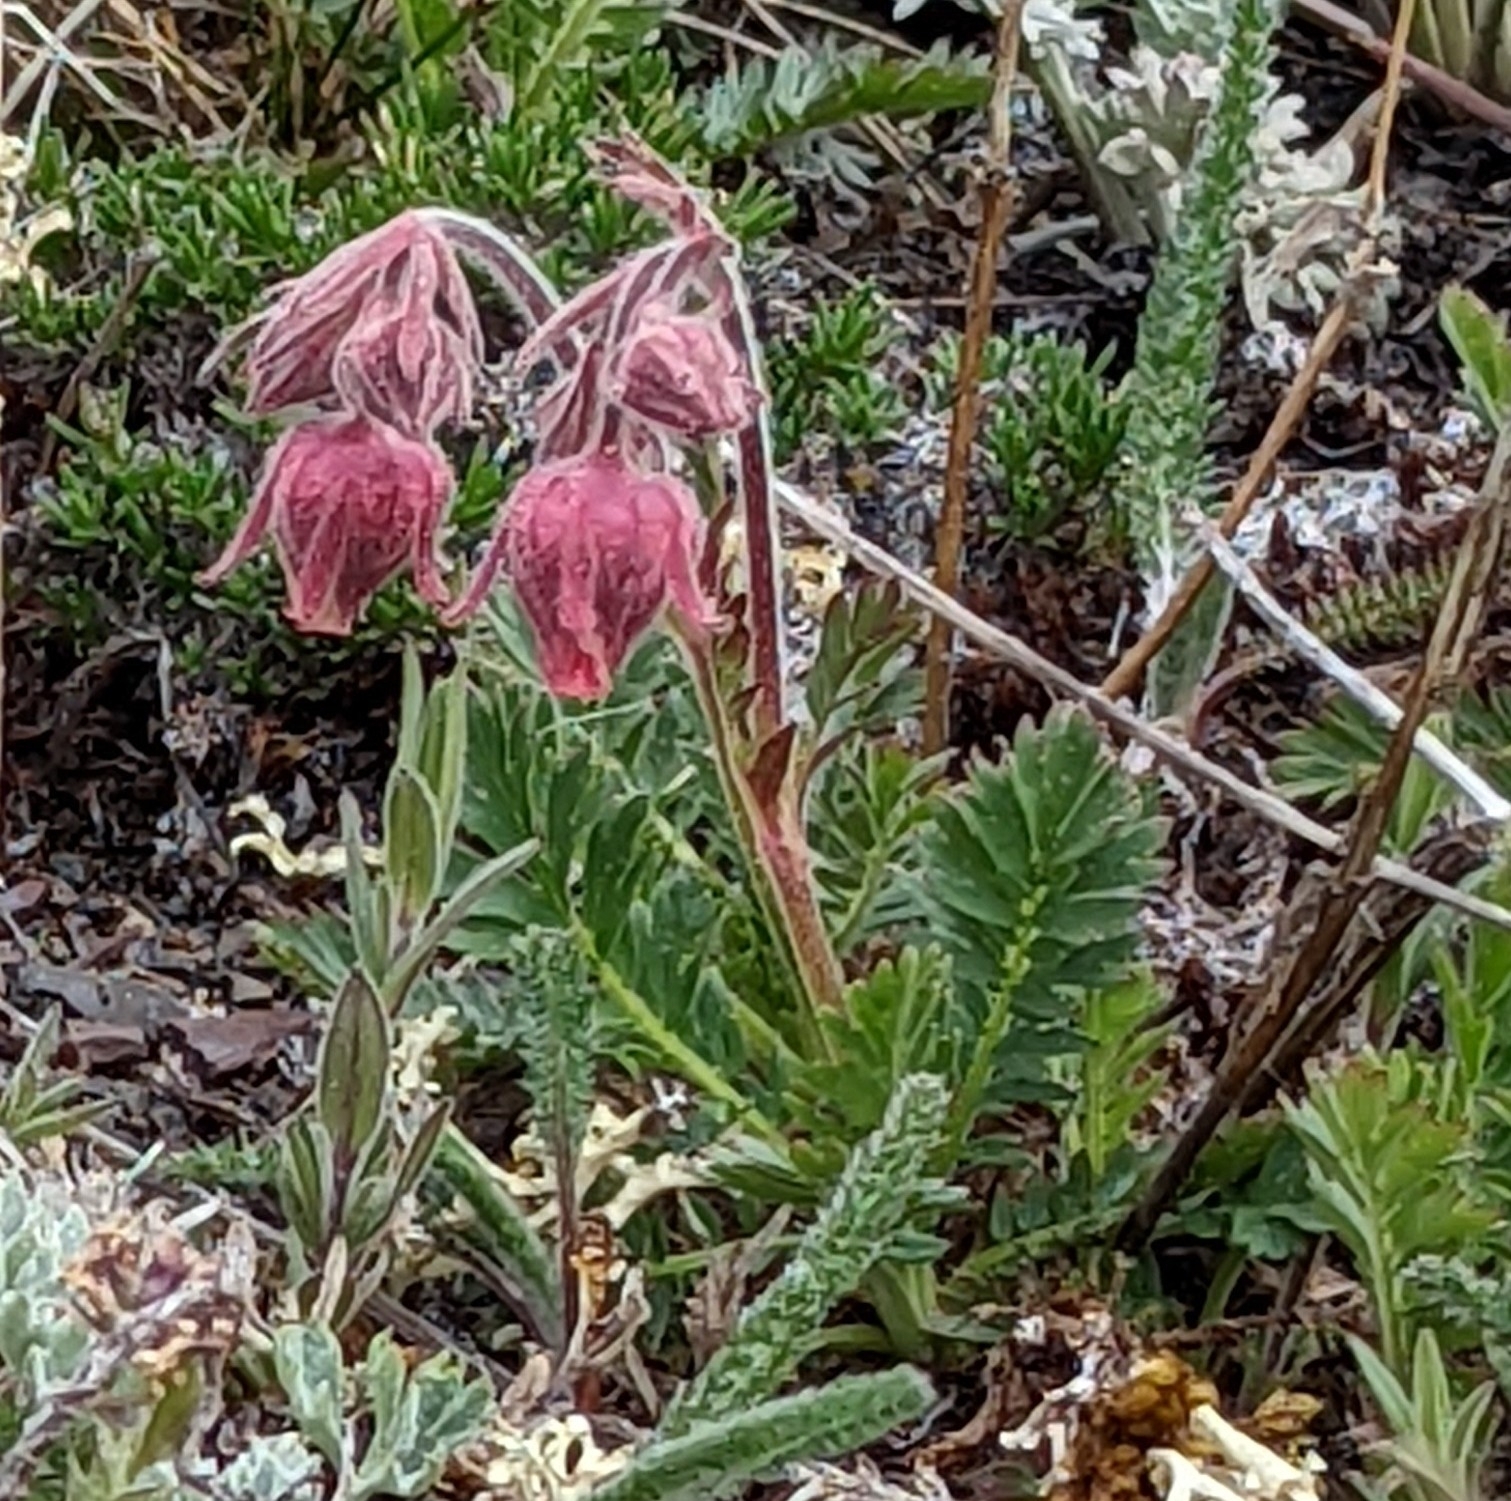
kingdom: Plantae
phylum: Tracheophyta
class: Magnoliopsida
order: Rosales
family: Rosaceae
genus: Geum
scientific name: Geum triflorum
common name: Old man's whiskers
